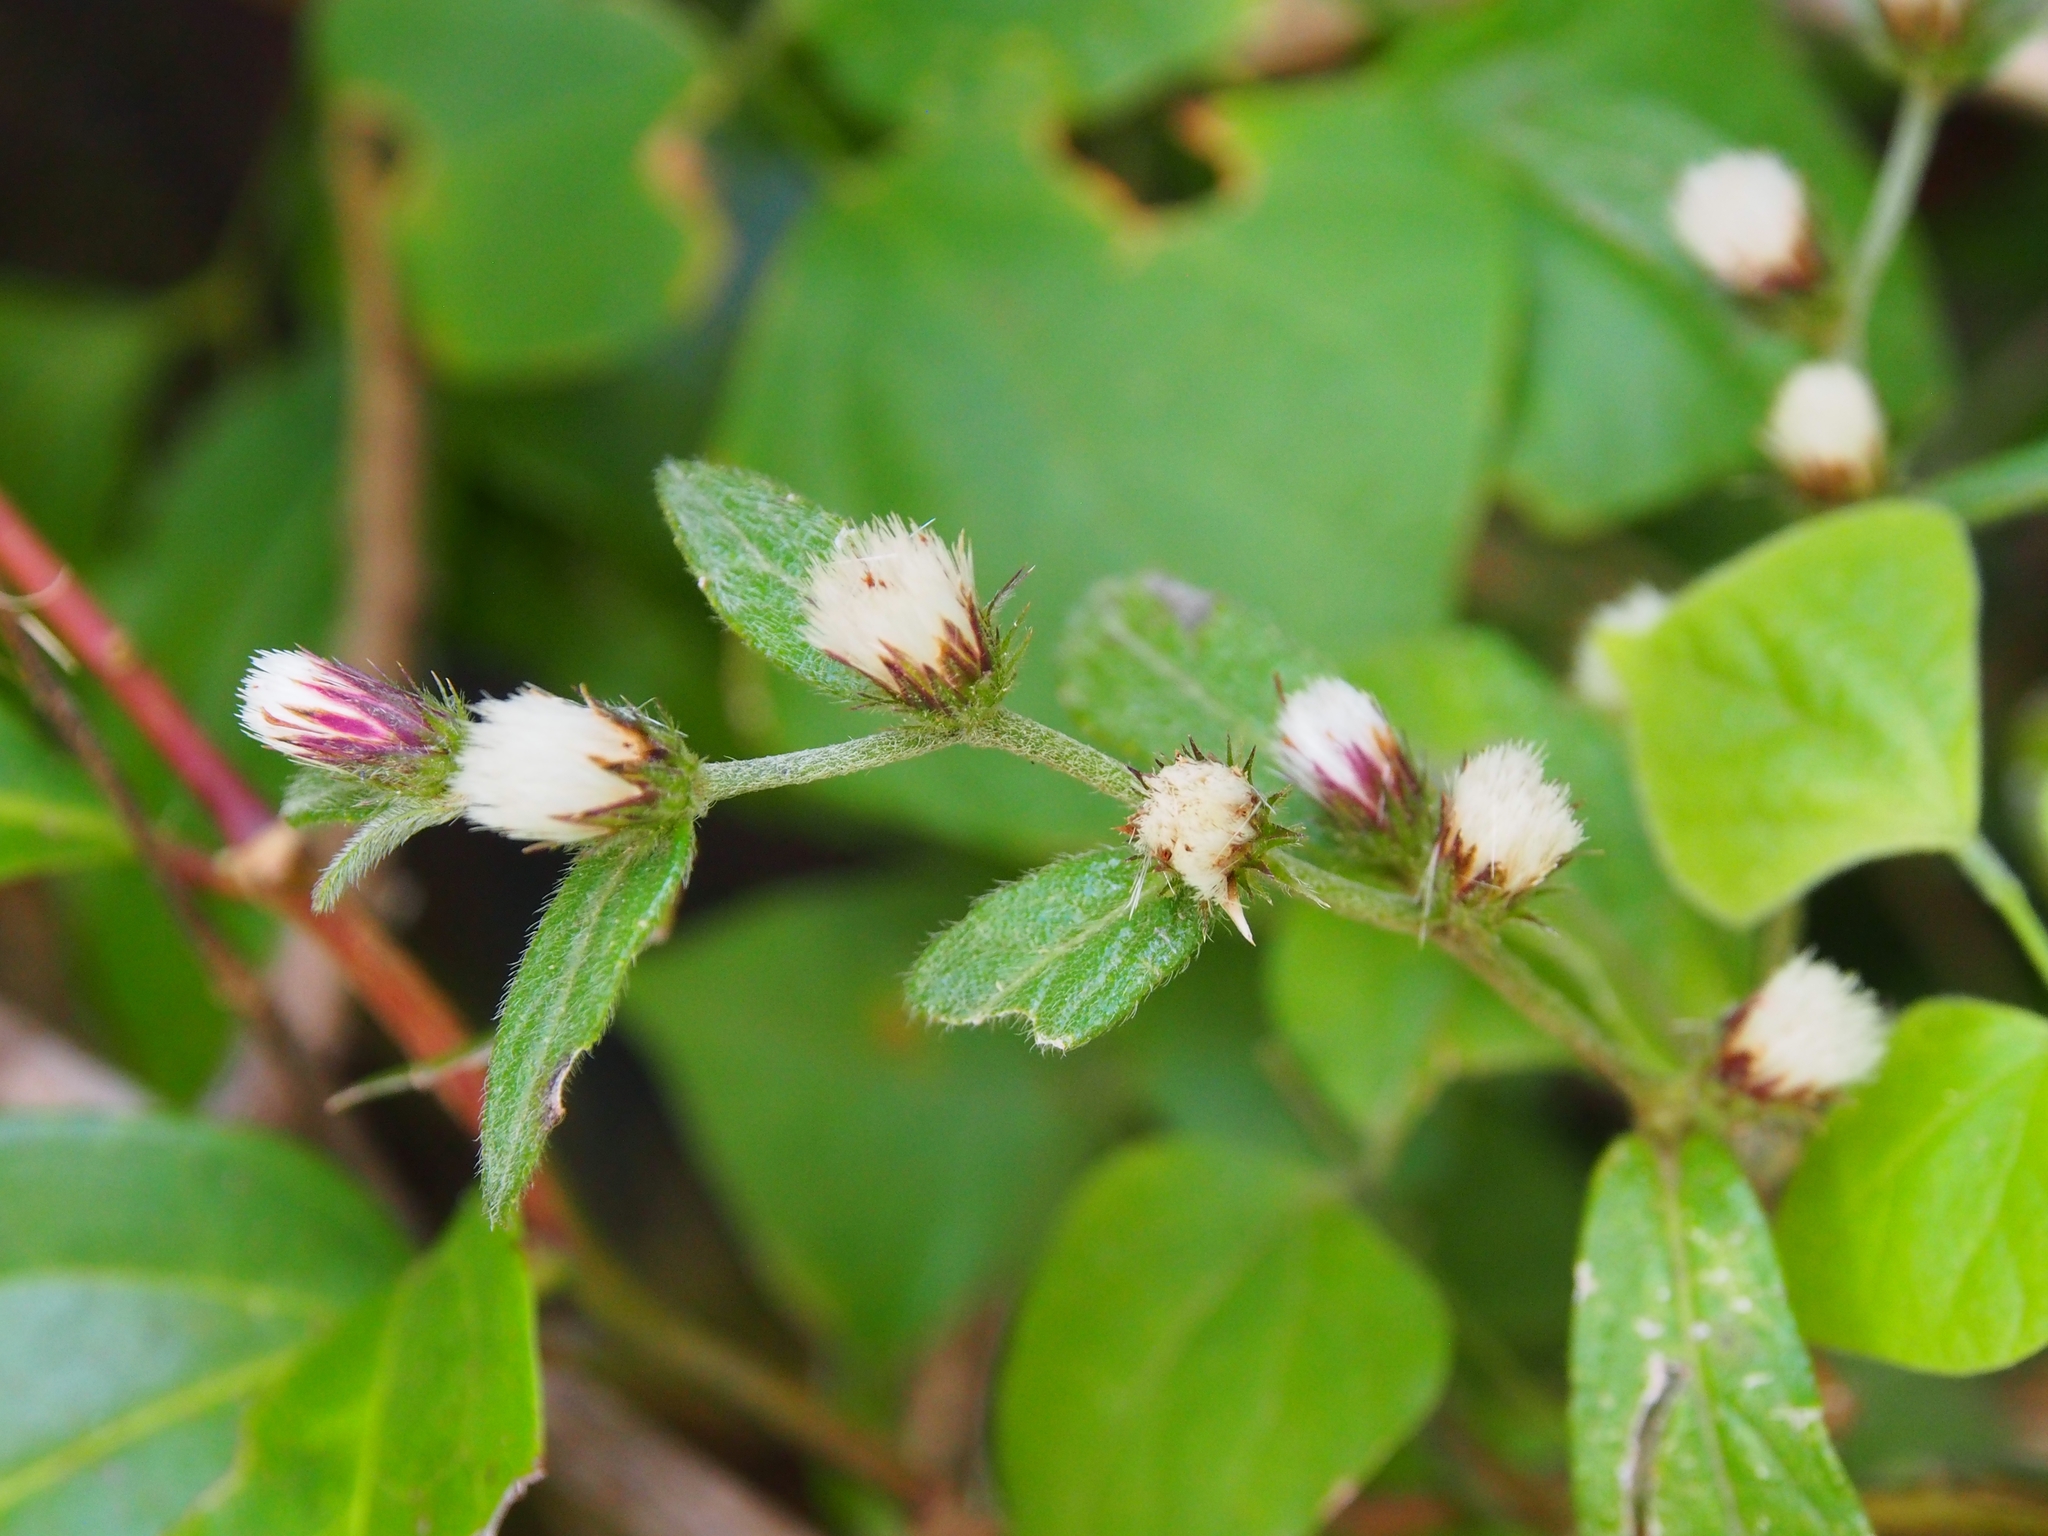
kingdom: Plantae
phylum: Tracheophyta
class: Magnoliopsida
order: Asterales
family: Asteraceae
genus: Lepidaploa
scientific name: Lepidaploa arborescens
